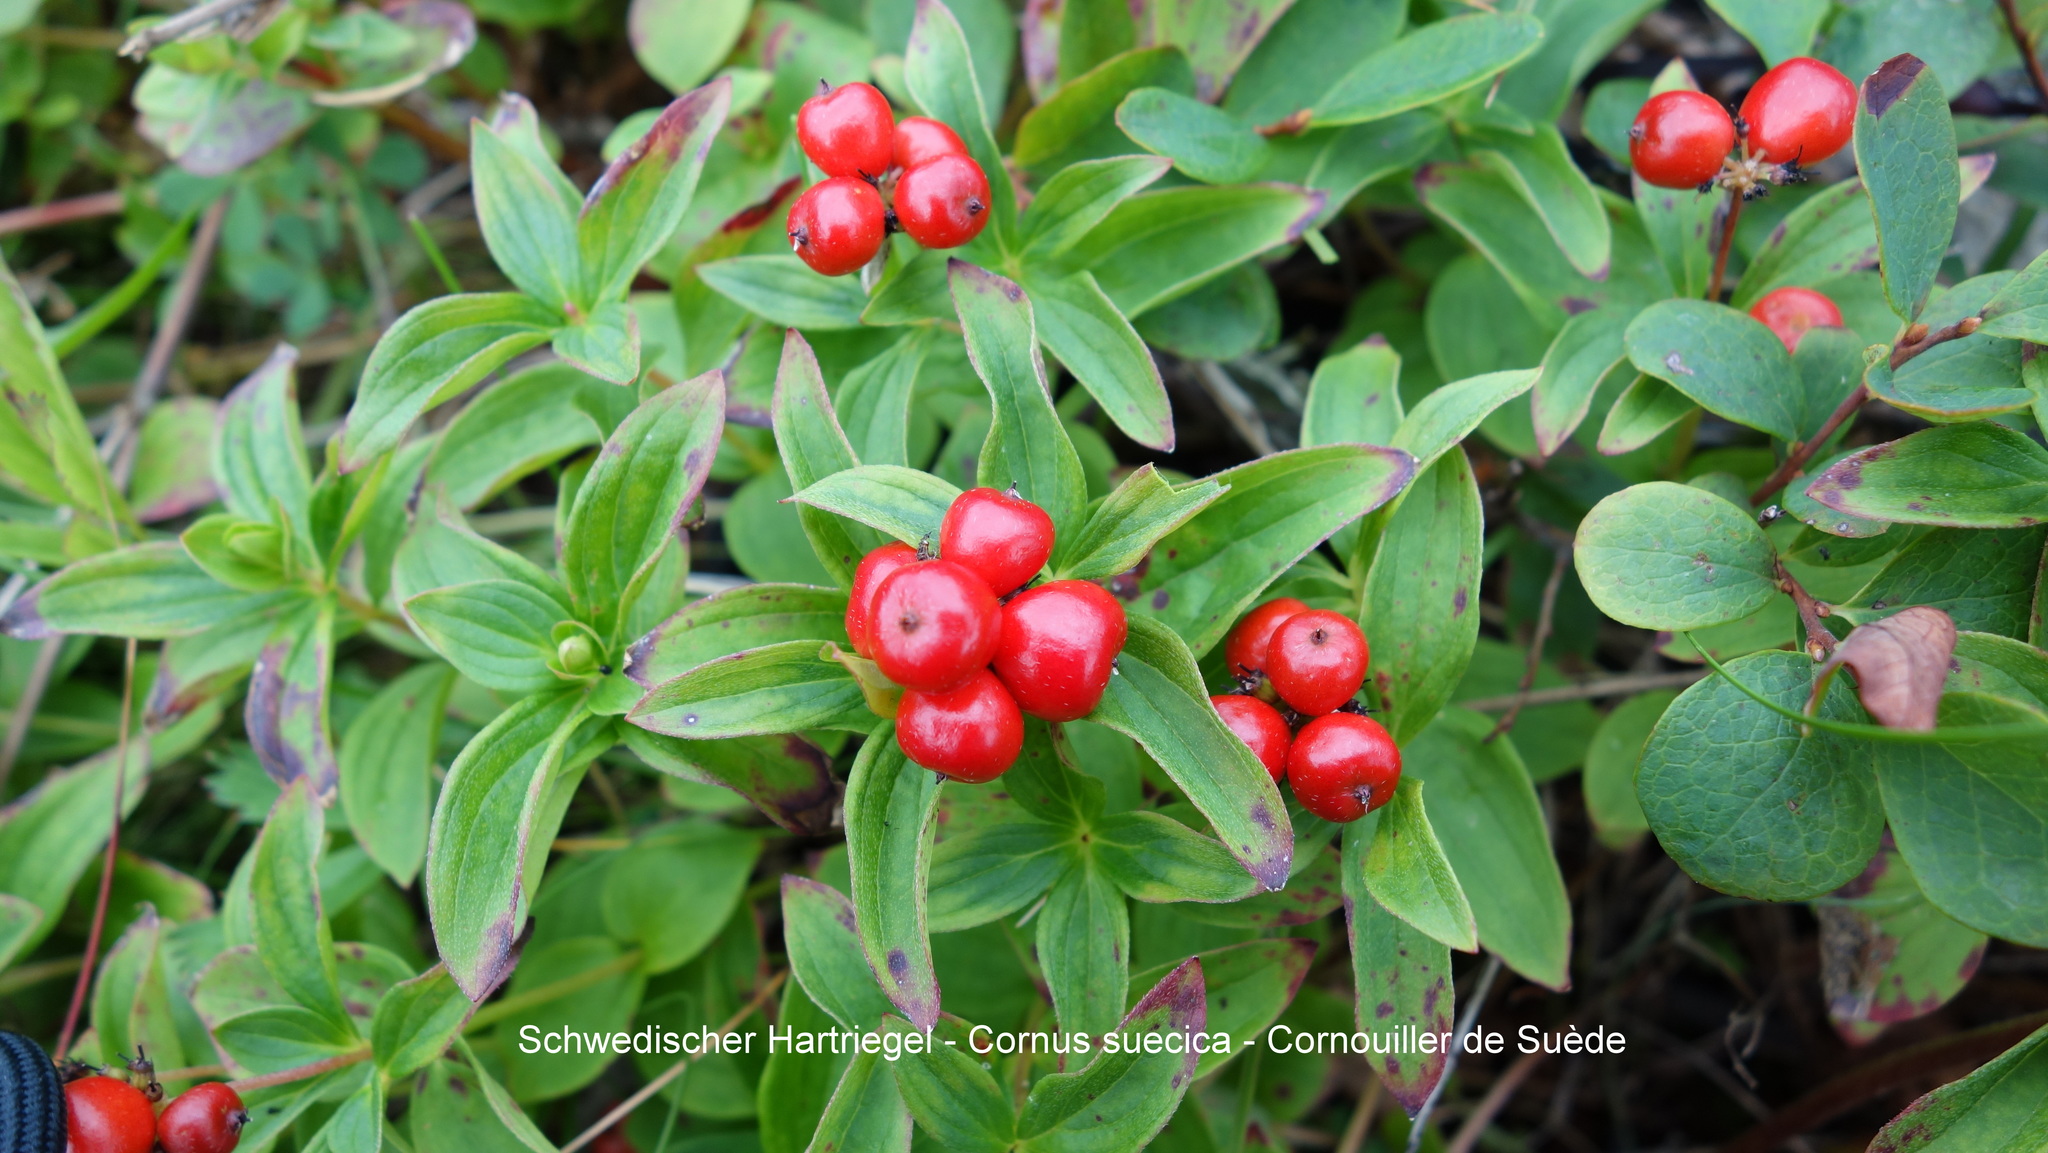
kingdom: Plantae
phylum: Tracheophyta
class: Magnoliopsida
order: Cornales
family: Cornaceae
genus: Cornus
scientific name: Cornus suecica
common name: Dwarf cornel
